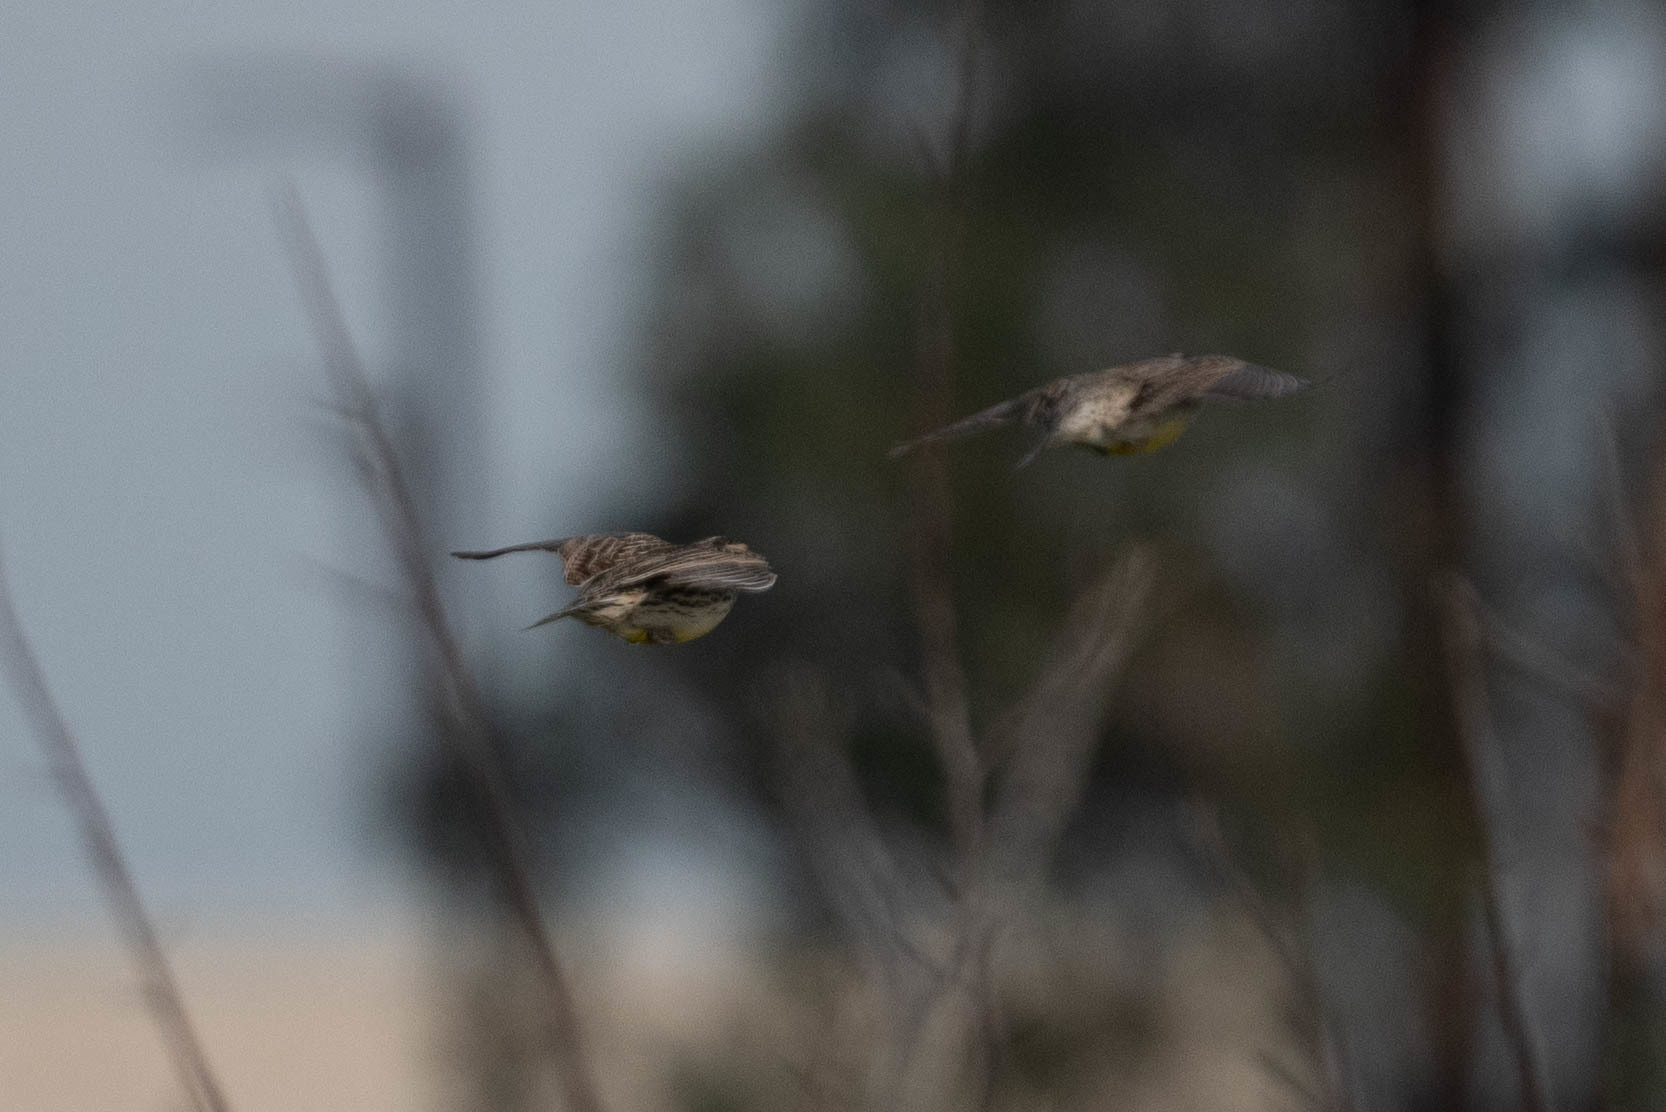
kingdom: Animalia
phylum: Chordata
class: Aves
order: Passeriformes
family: Icteridae
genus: Sturnella
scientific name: Sturnella neglecta
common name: Western meadowlark
